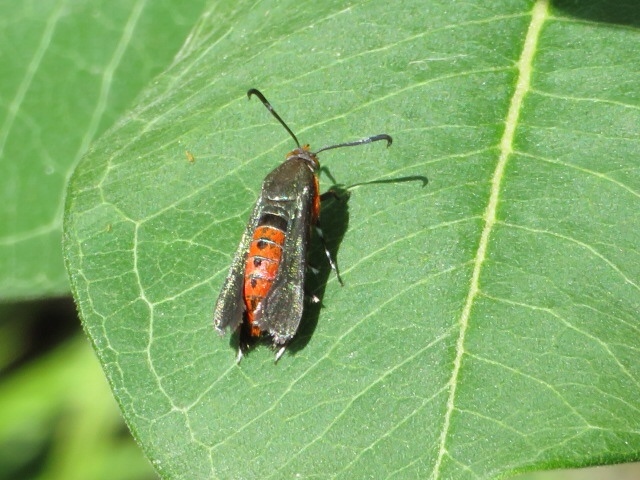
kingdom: Animalia
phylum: Arthropoda
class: Insecta
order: Lepidoptera
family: Sesiidae
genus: Eichlinia
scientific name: Eichlinia cucurbitae
